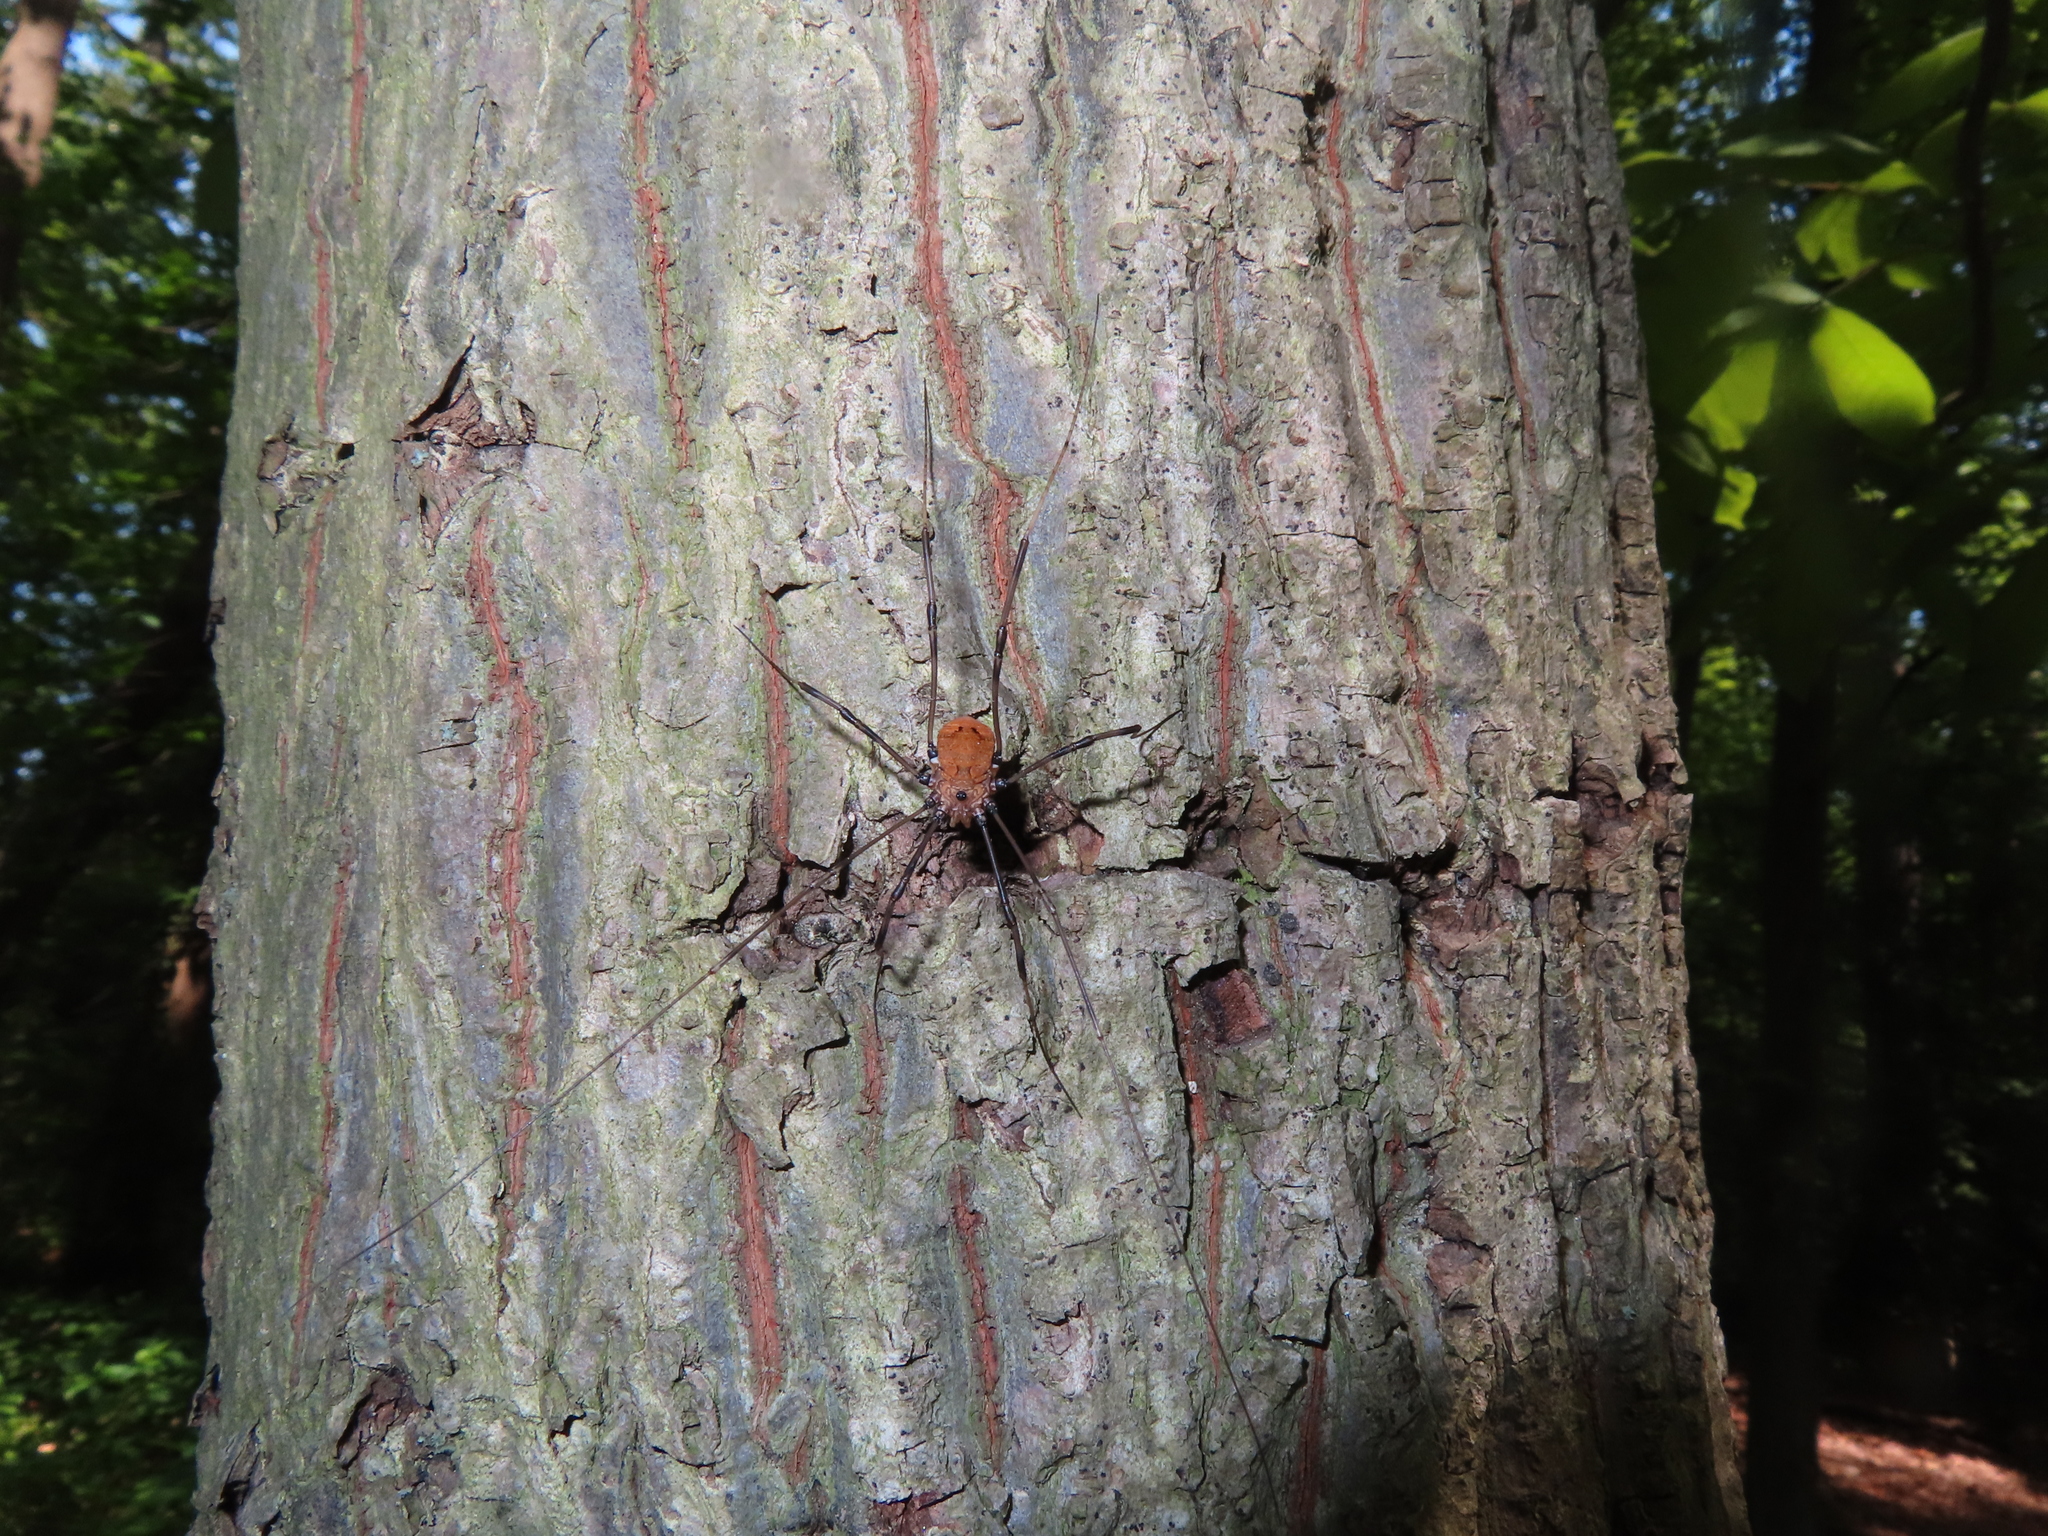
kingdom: Animalia
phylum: Arthropoda
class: Arachnida
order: Opiliones
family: Sclerosomatidae
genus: Leiobunum
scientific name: Leiobunum verrucosum
